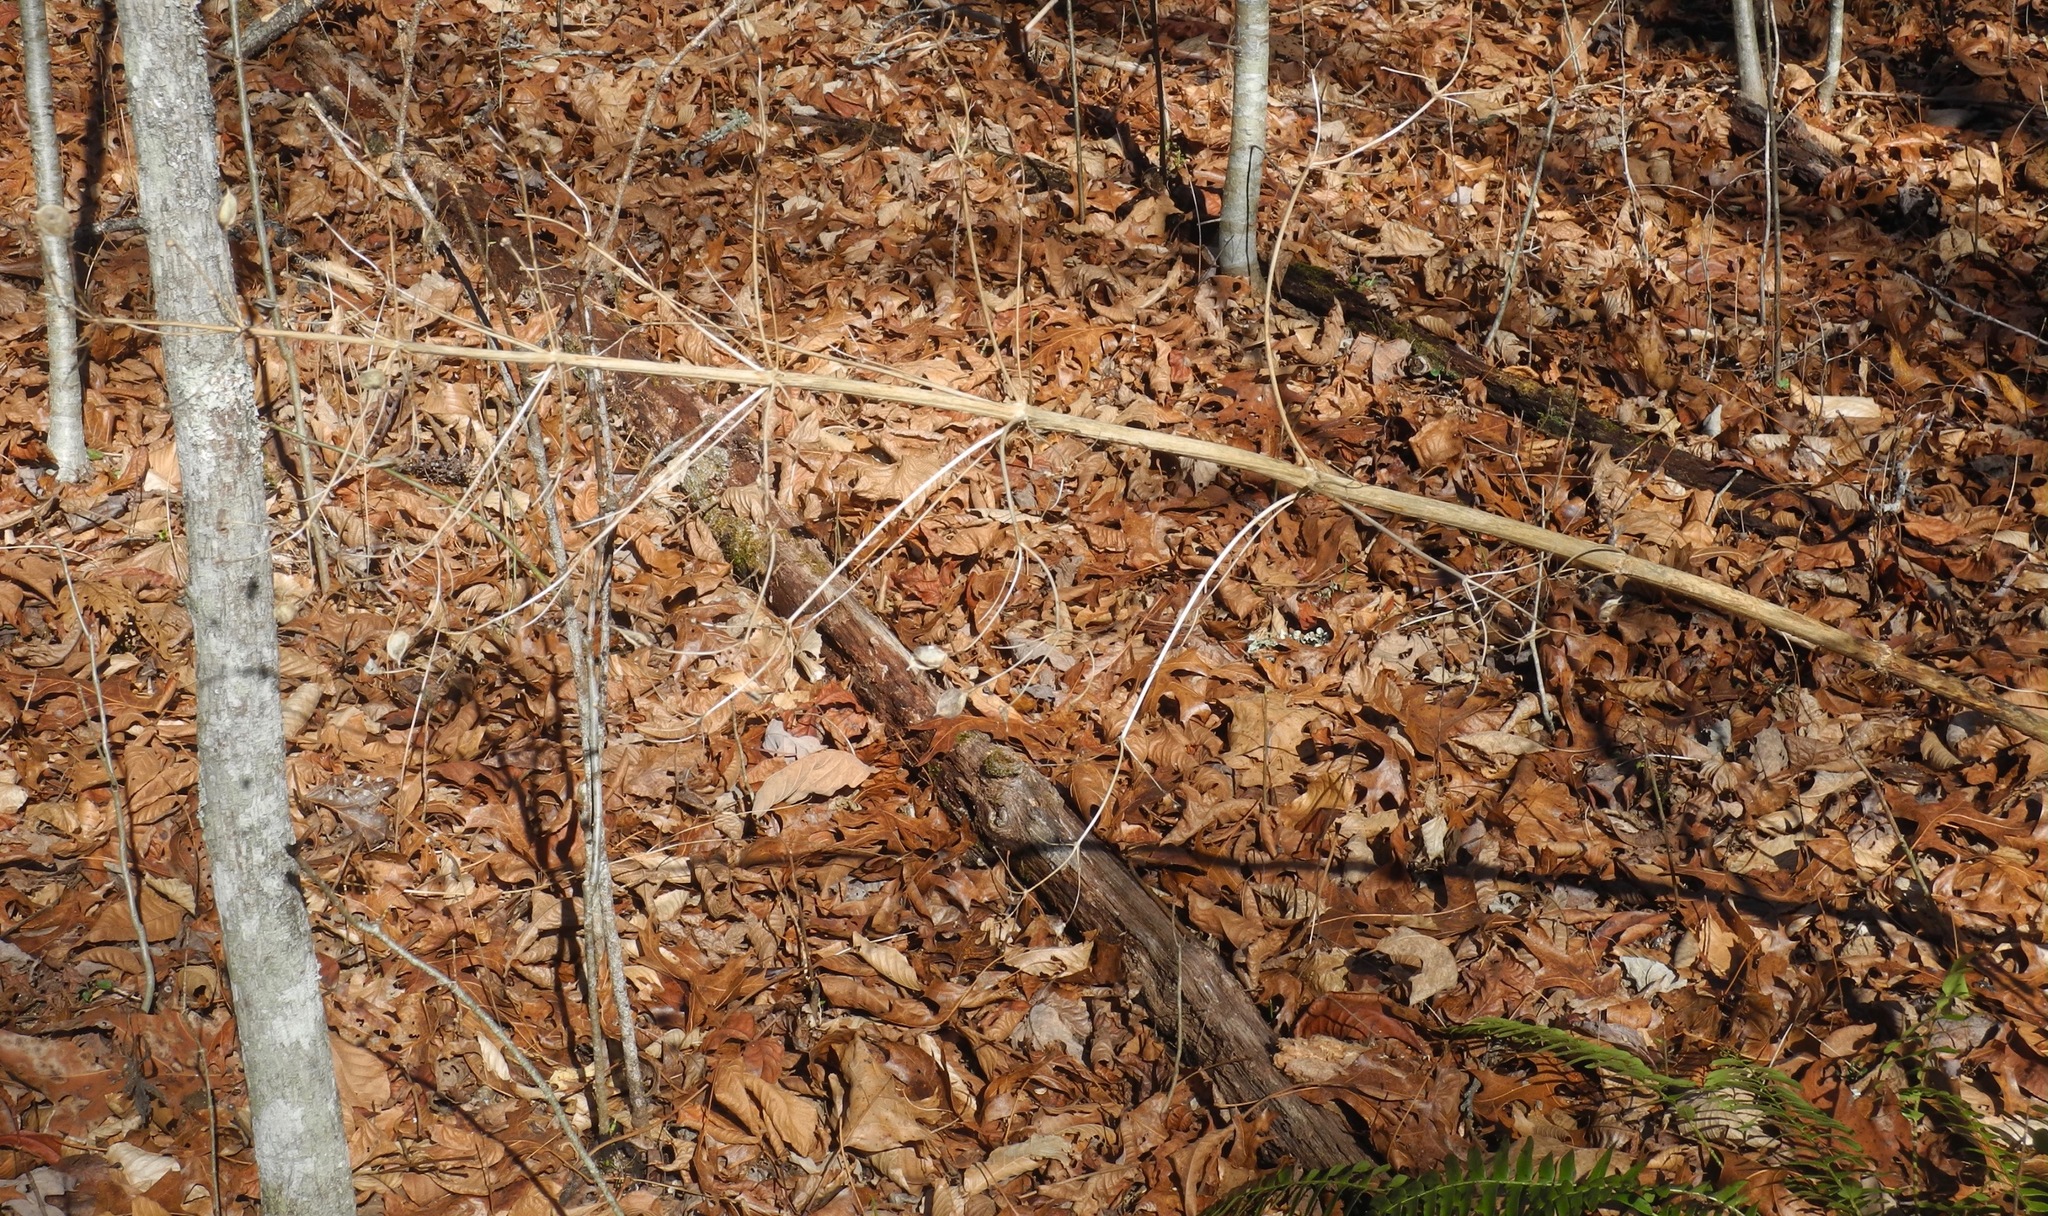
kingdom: Plantae
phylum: Tracheophyta
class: Magnoliopsida
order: Gentianales
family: Gentianaceae
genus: Frasera
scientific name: Frasera caroliniensis
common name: American columbo
